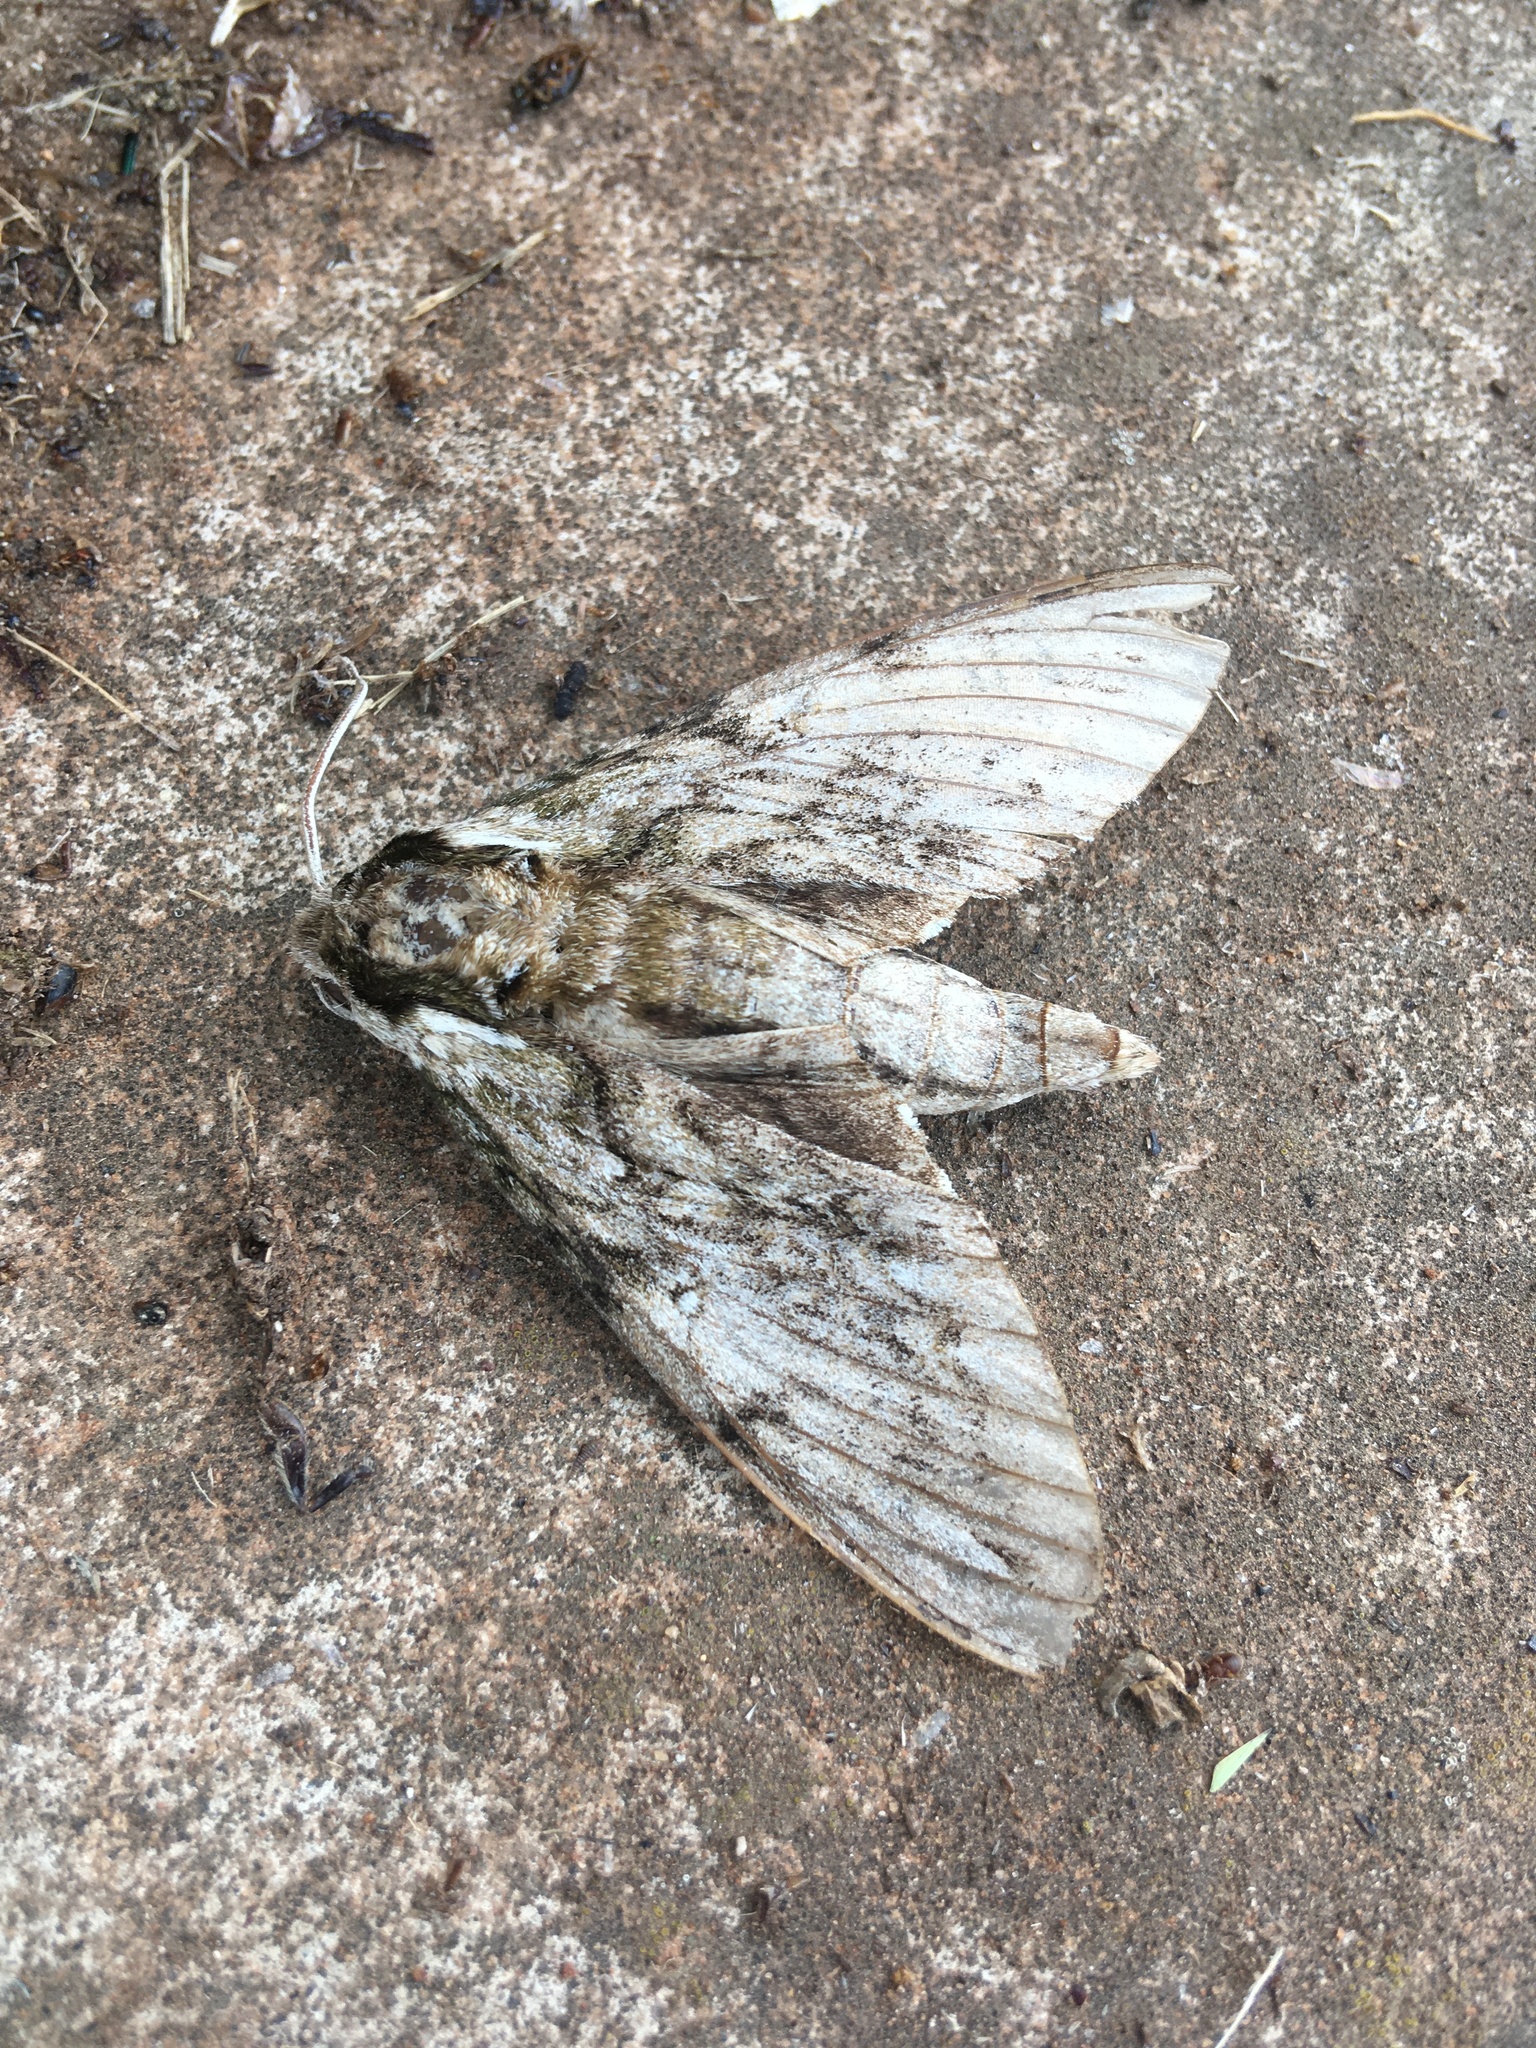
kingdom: Animalia
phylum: Arthropoda
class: Insecta
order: Lepidoptera
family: Sphingidae
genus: Ceratomia
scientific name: Ceratomia undulosa
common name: Waved sphinx
